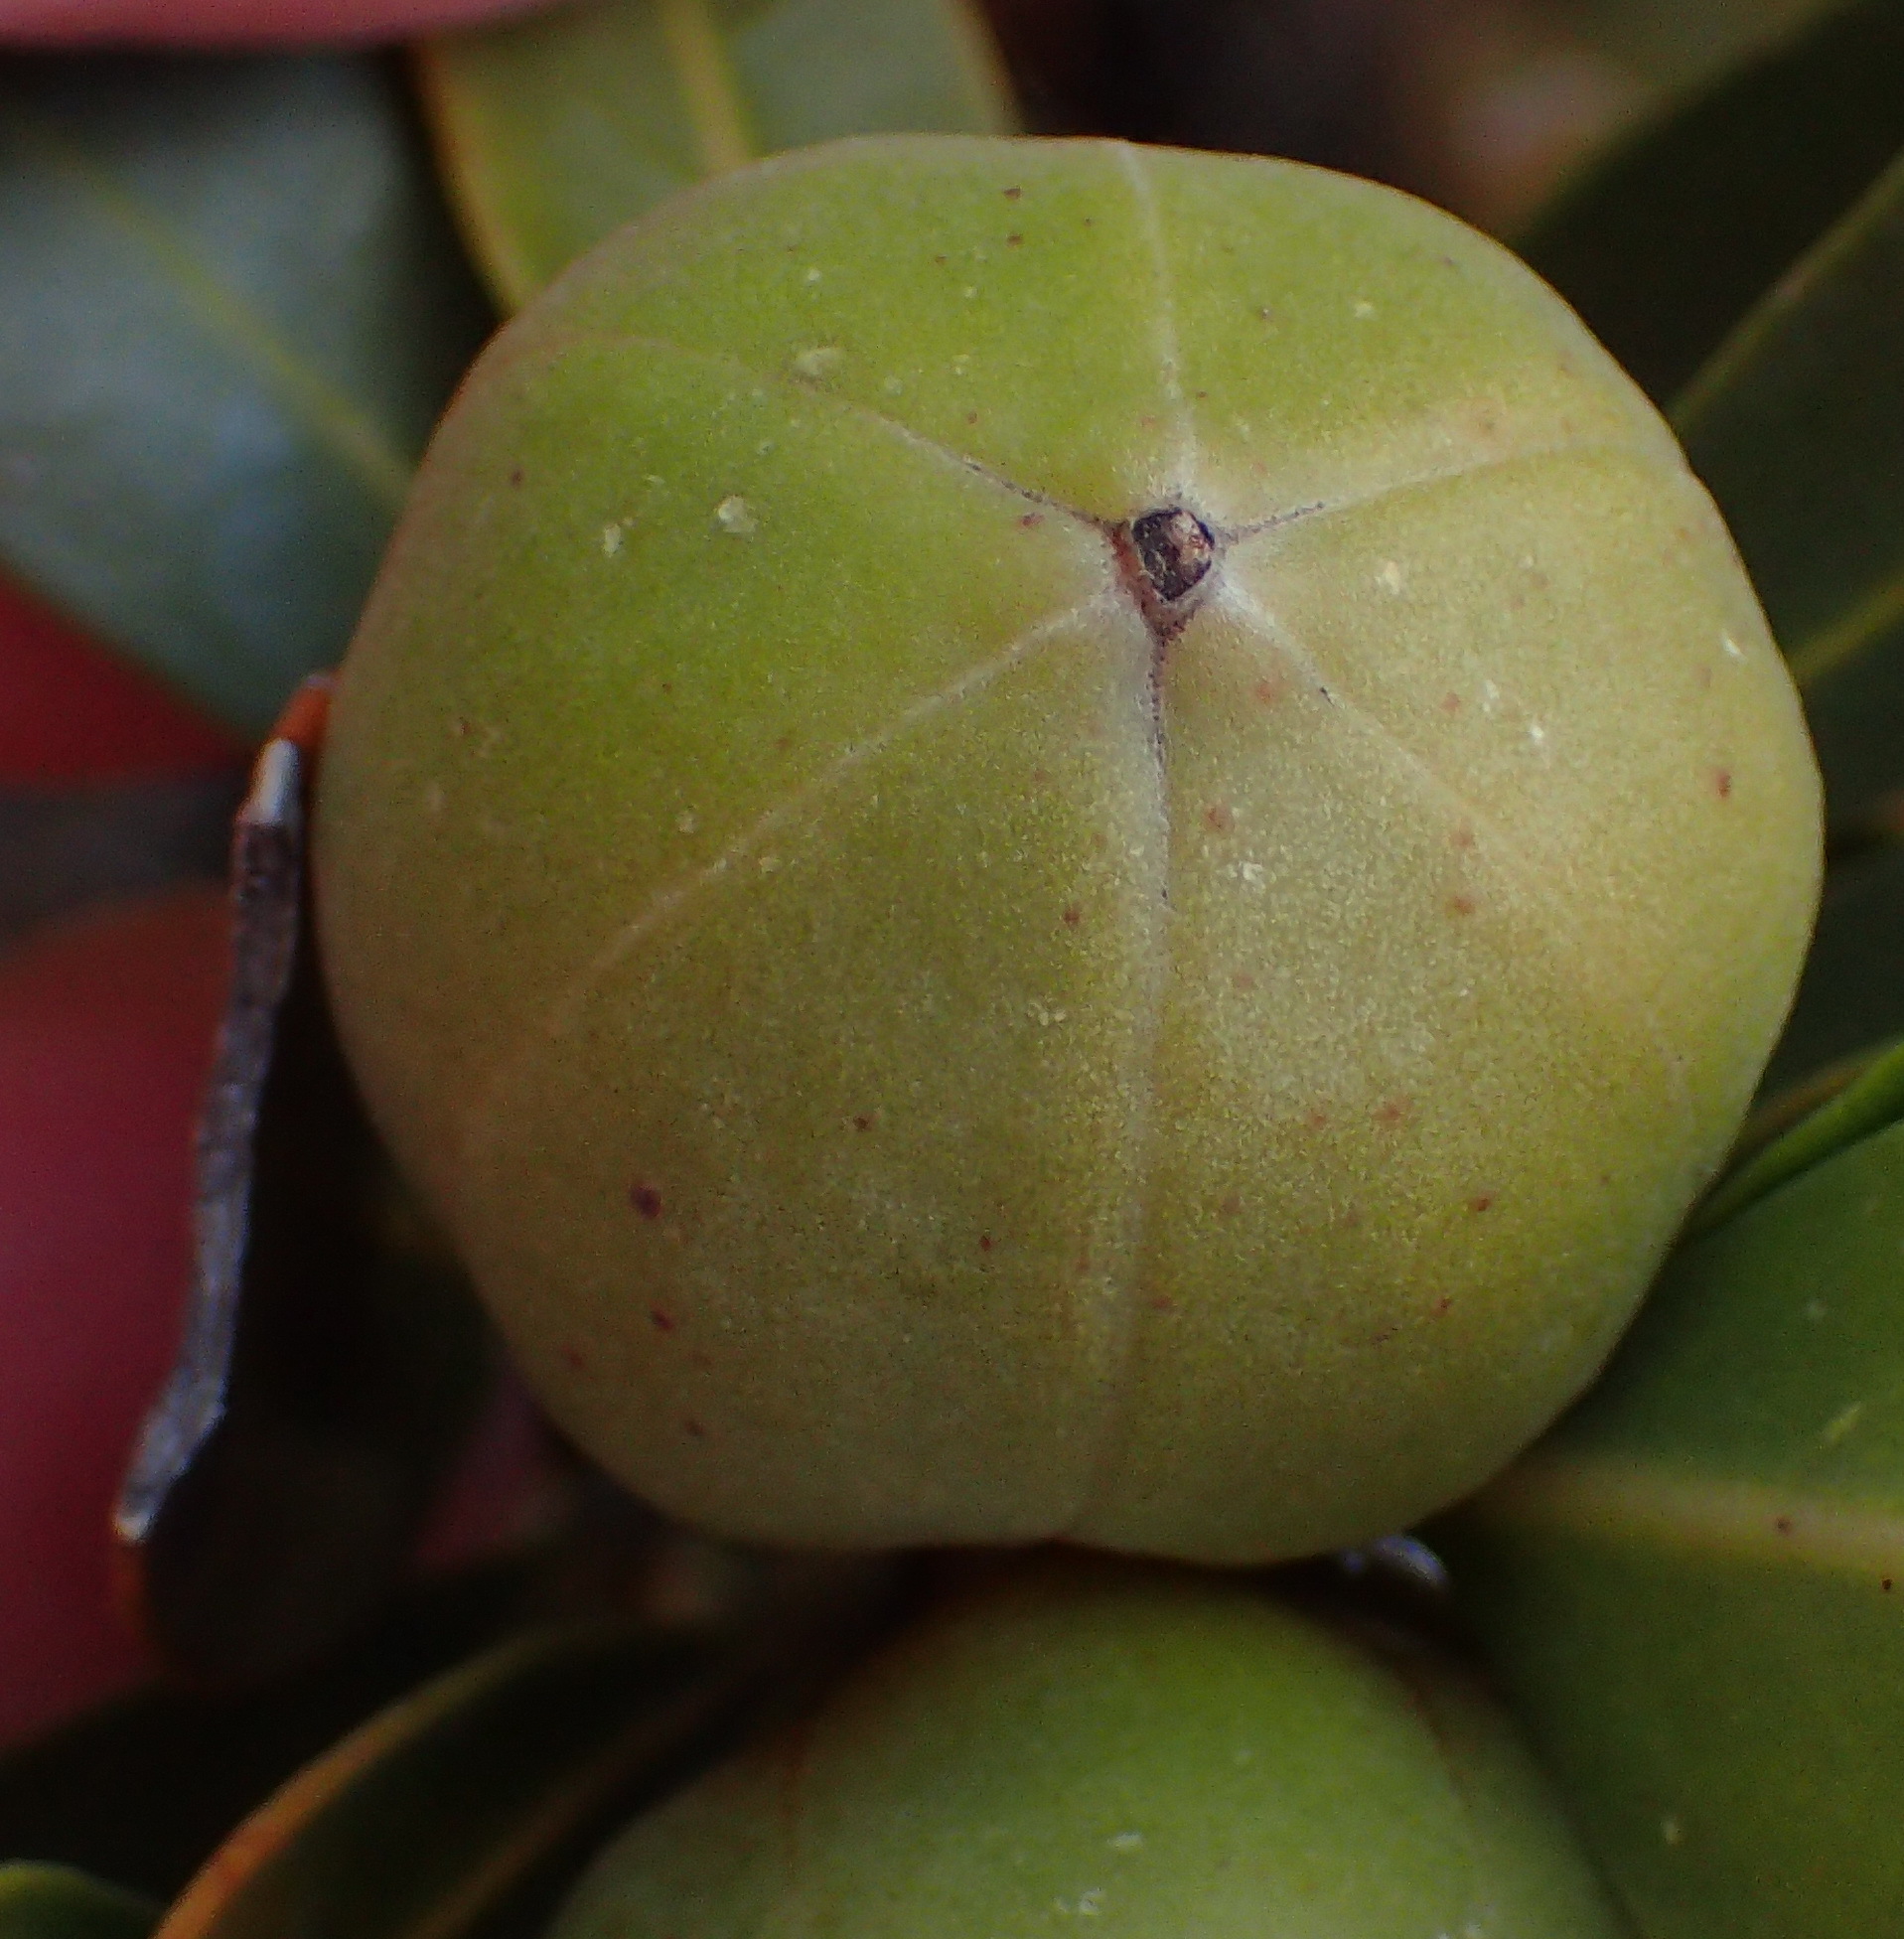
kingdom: Plantae
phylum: Tracheophyta
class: Magnoliopsida
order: Malpighiales
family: Picrodendraceae
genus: Hyaenanche
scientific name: Hyaenanche globosa
